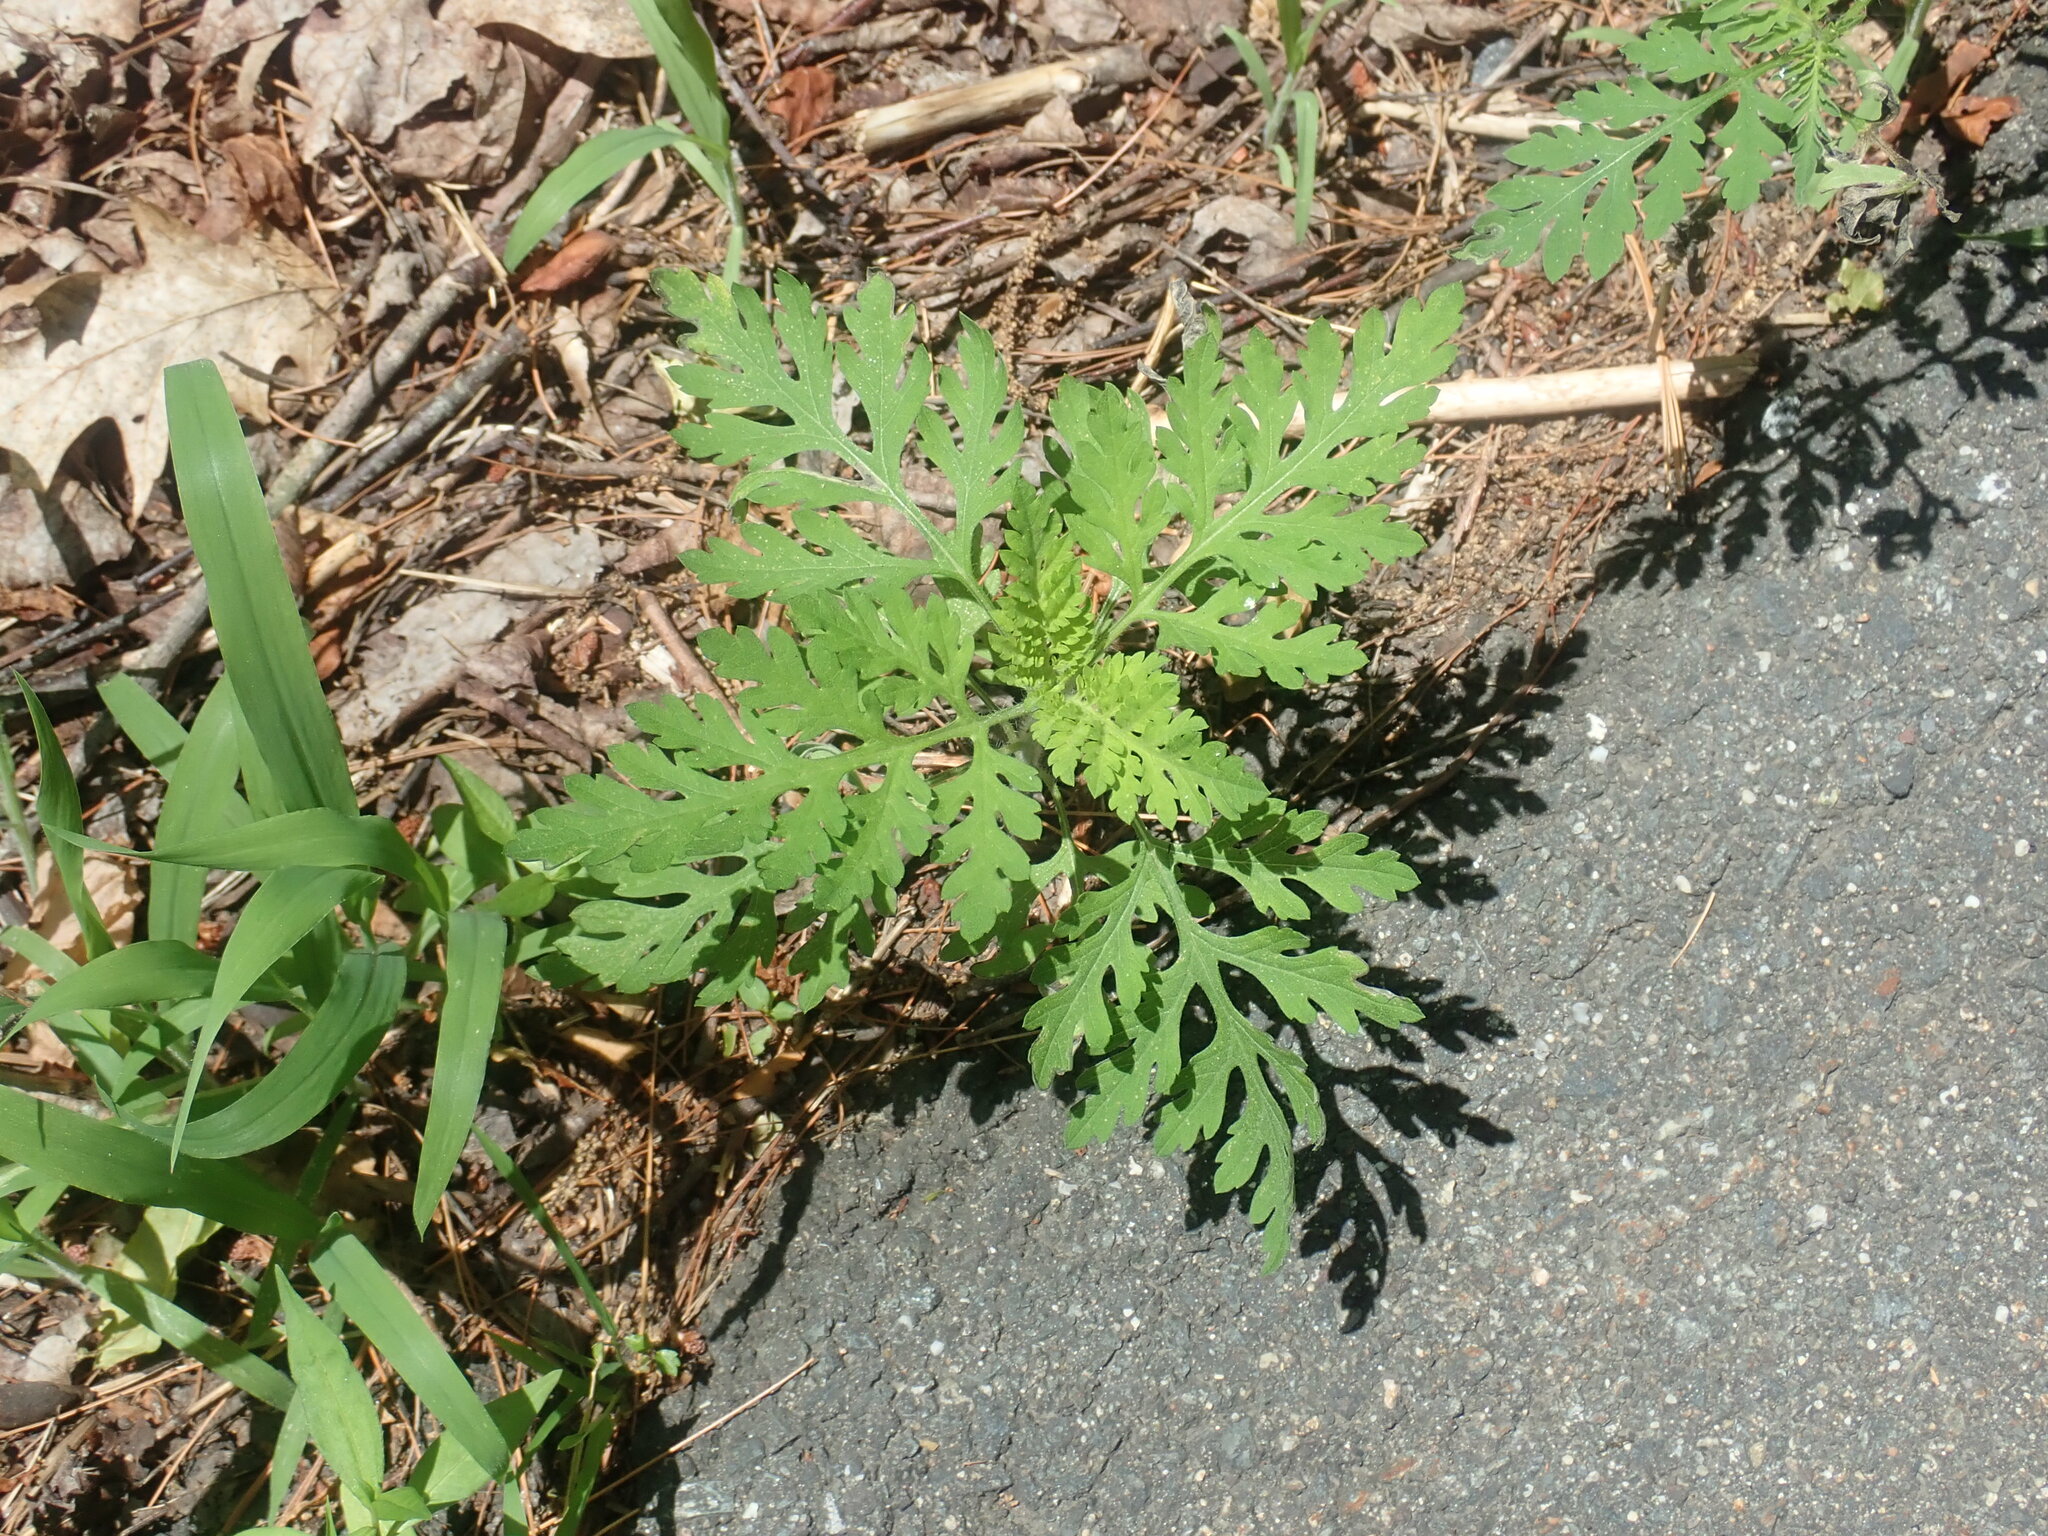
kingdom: Plantae
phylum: Tracheophyta
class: Magnoliopsida
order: Asterales
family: Asteraceae
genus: Ambrosia
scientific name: Ambrosia artemisiifolia
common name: Annual ragweed
